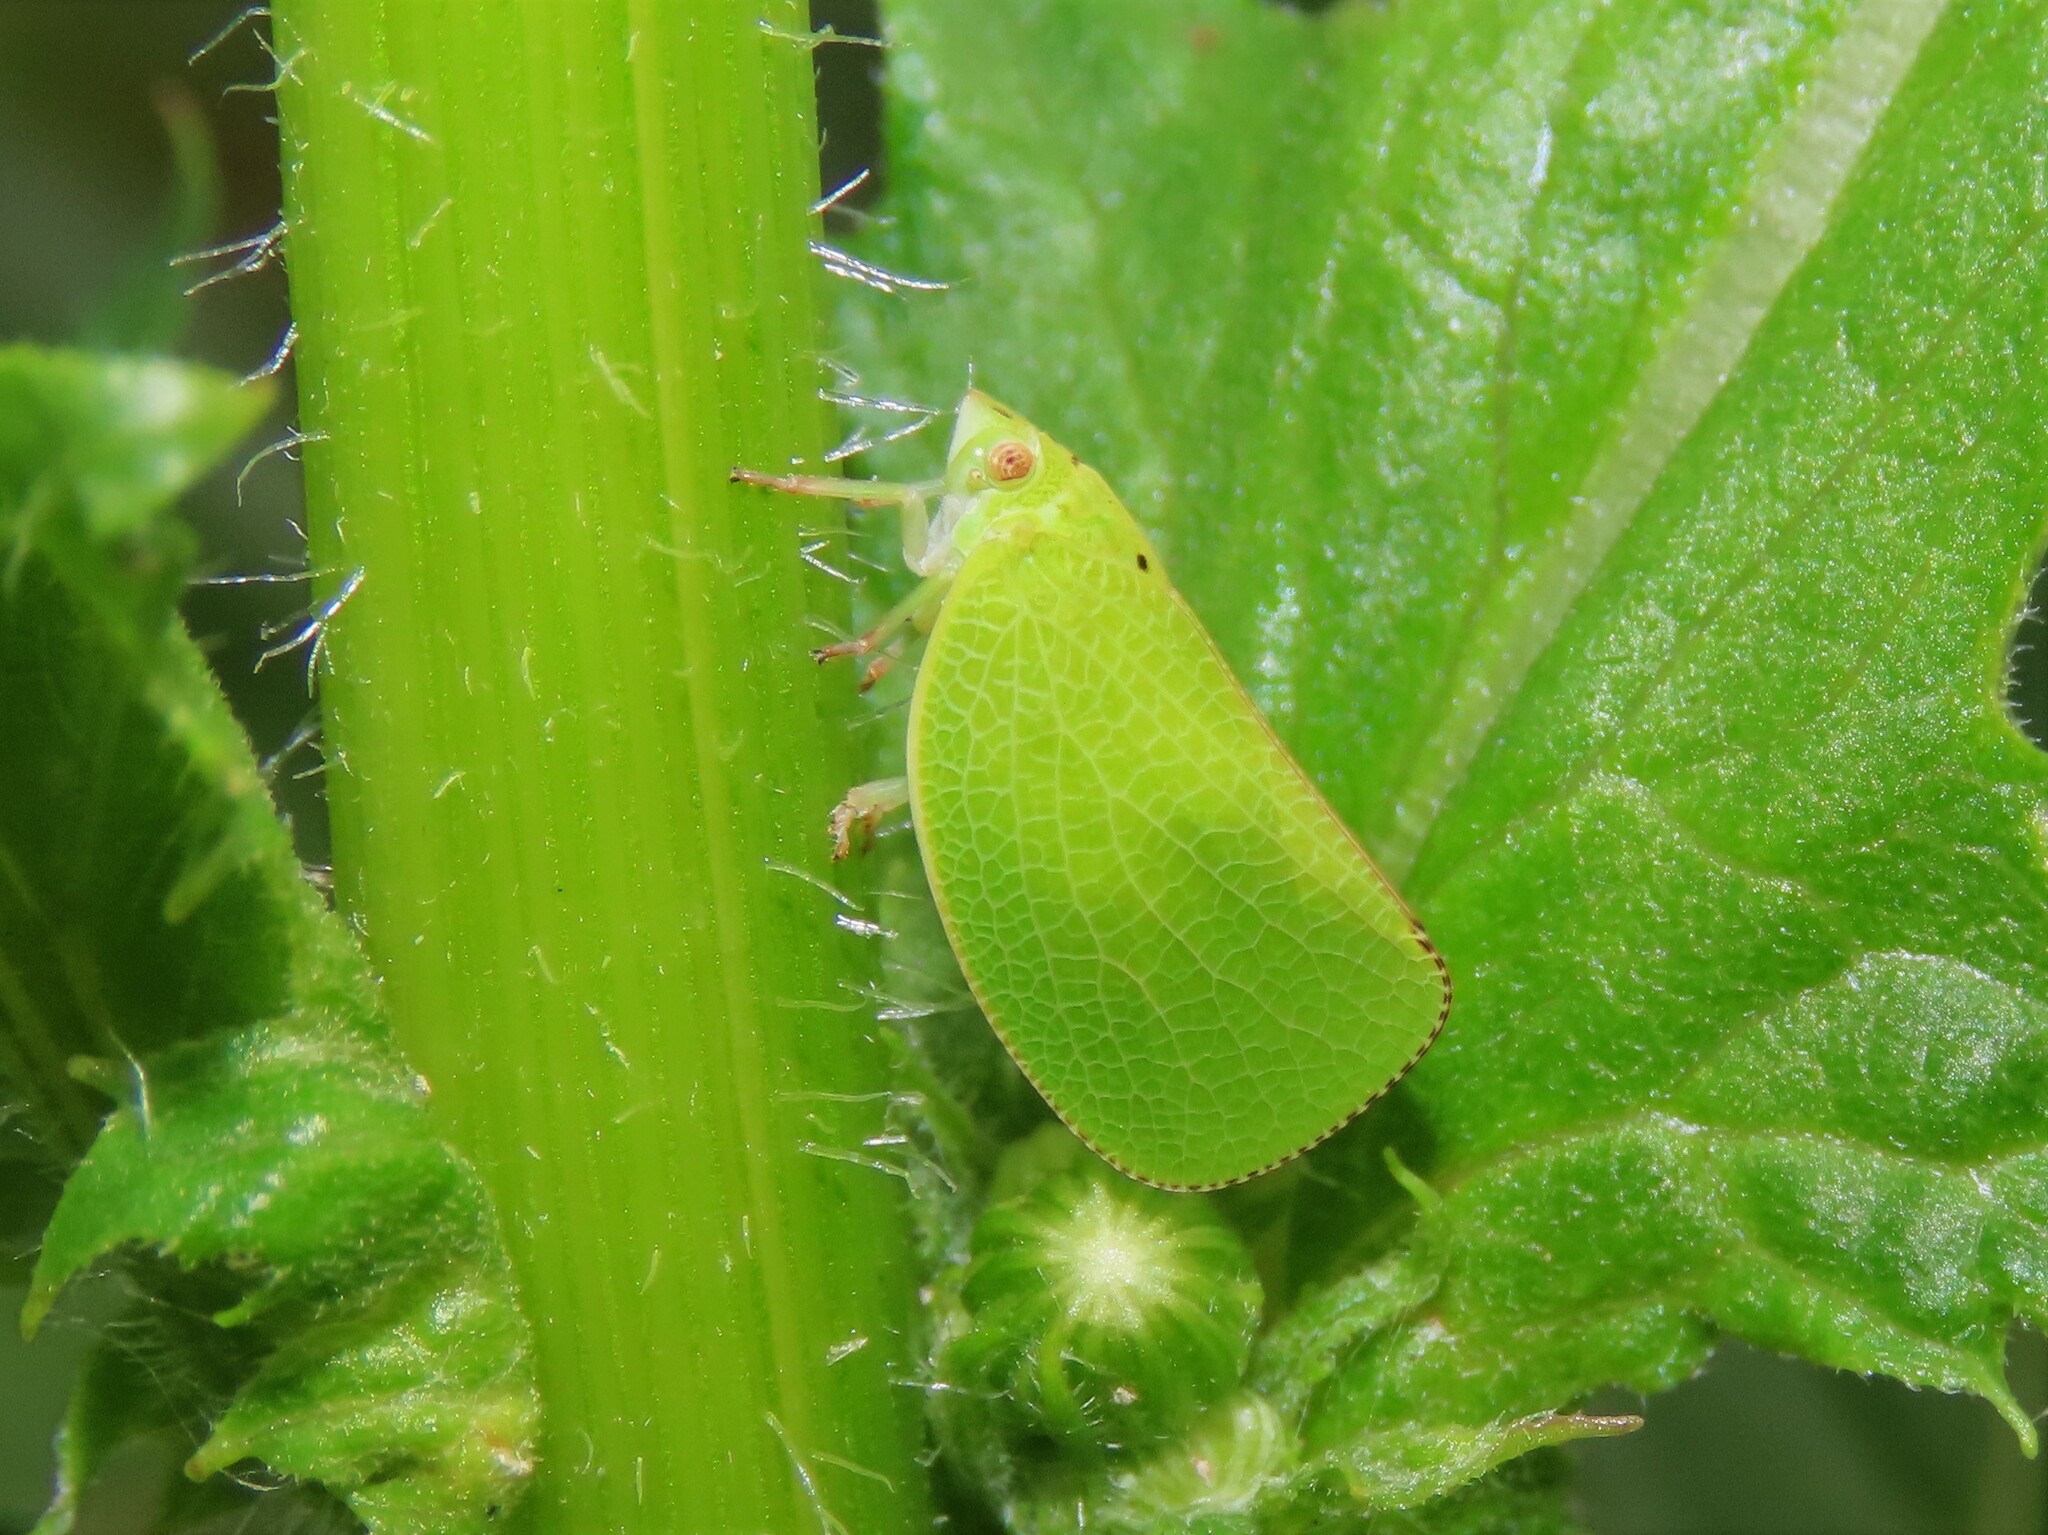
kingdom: Animalia
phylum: Arthropoda
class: Insecta
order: Hemiptera
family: Acanaloniidae
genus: Acanalonia
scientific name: Acanalonia conica
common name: Green cone-headed planthopper
